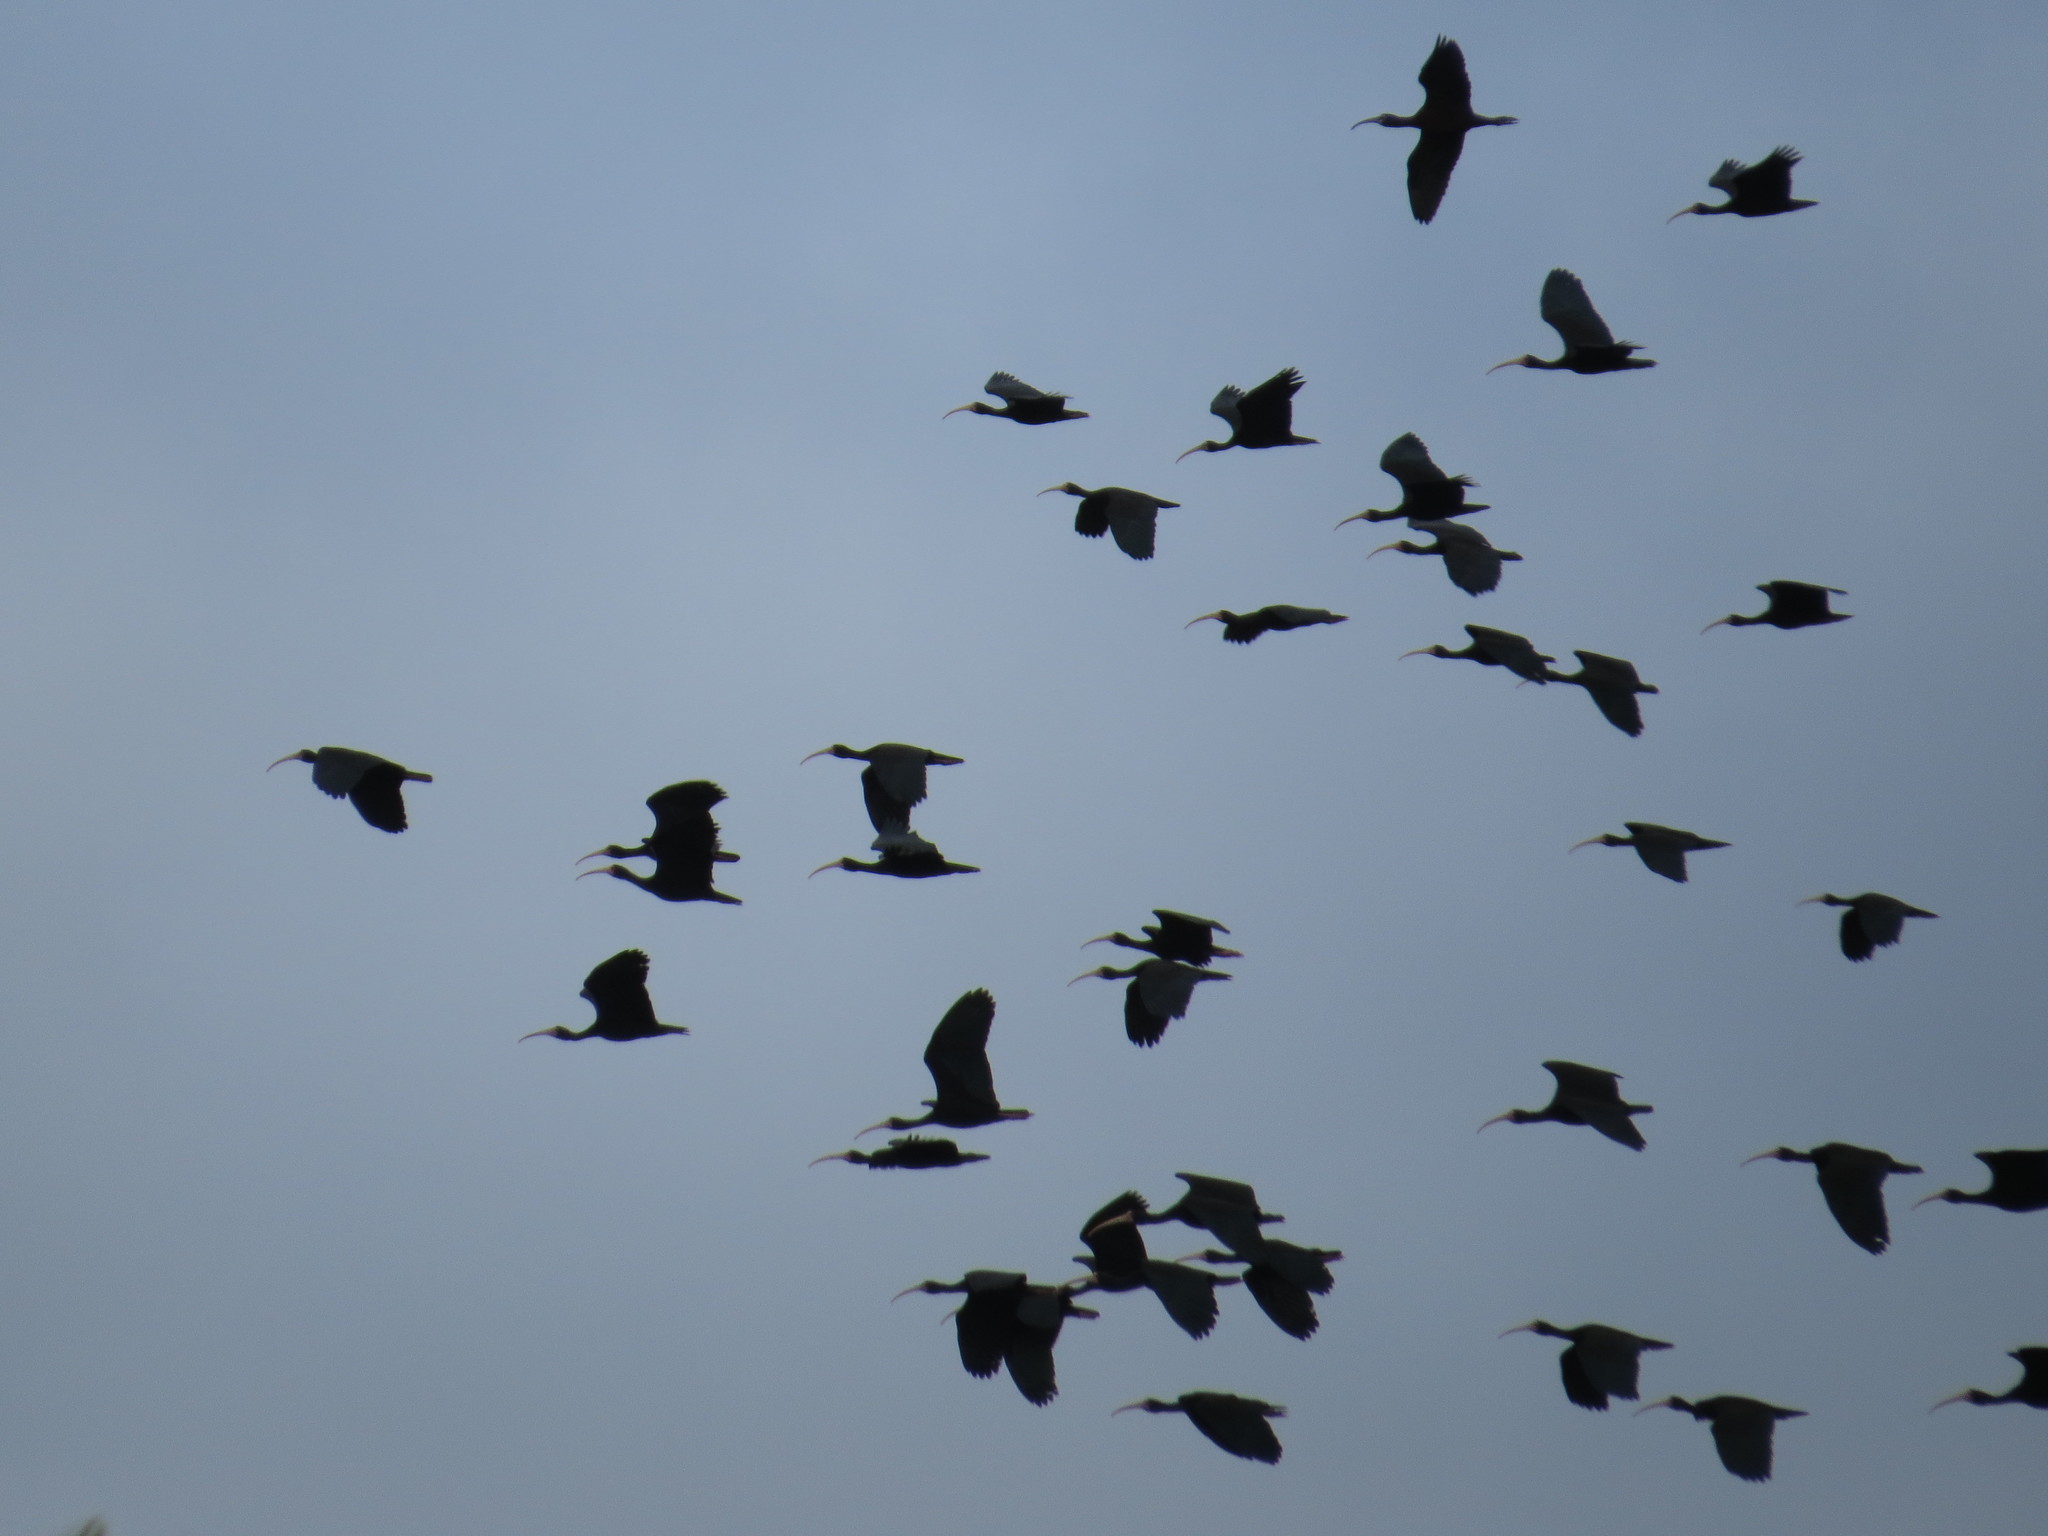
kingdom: Animalia
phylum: Chordata
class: Aves
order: Pelecaniformes
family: Threskiornithidae
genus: Phimosus
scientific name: Phimosus infuscatus
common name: Bare-faced ibis
